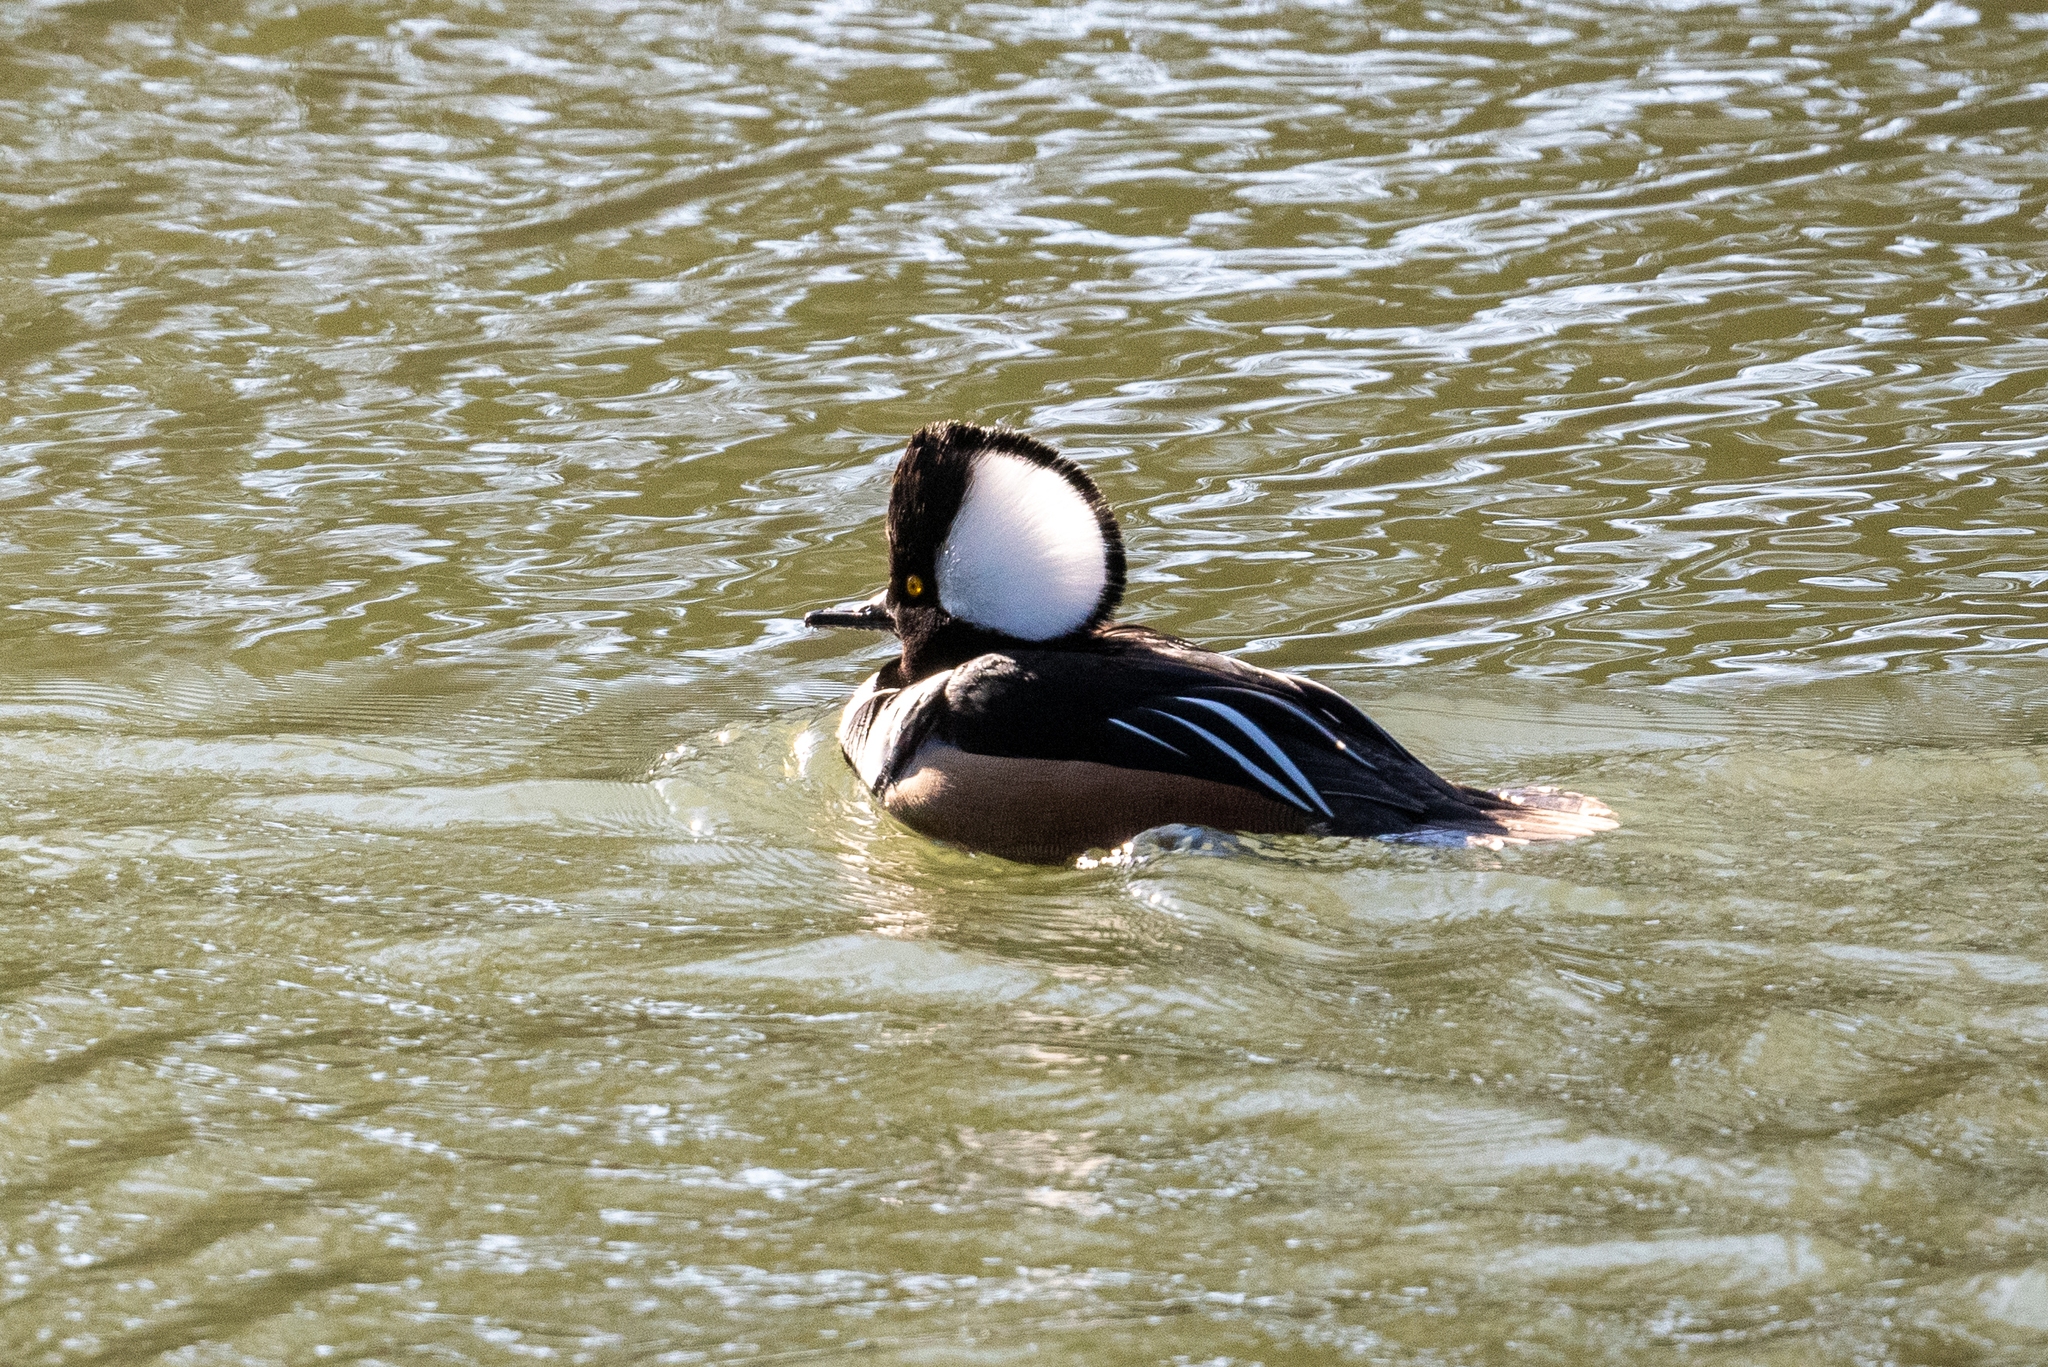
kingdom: Animalia
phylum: Chordata
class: Aves
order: Anseriformes
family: Anatidae
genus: Lophodytes
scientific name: Lophodytes cucullatus
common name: Hooded merganser
